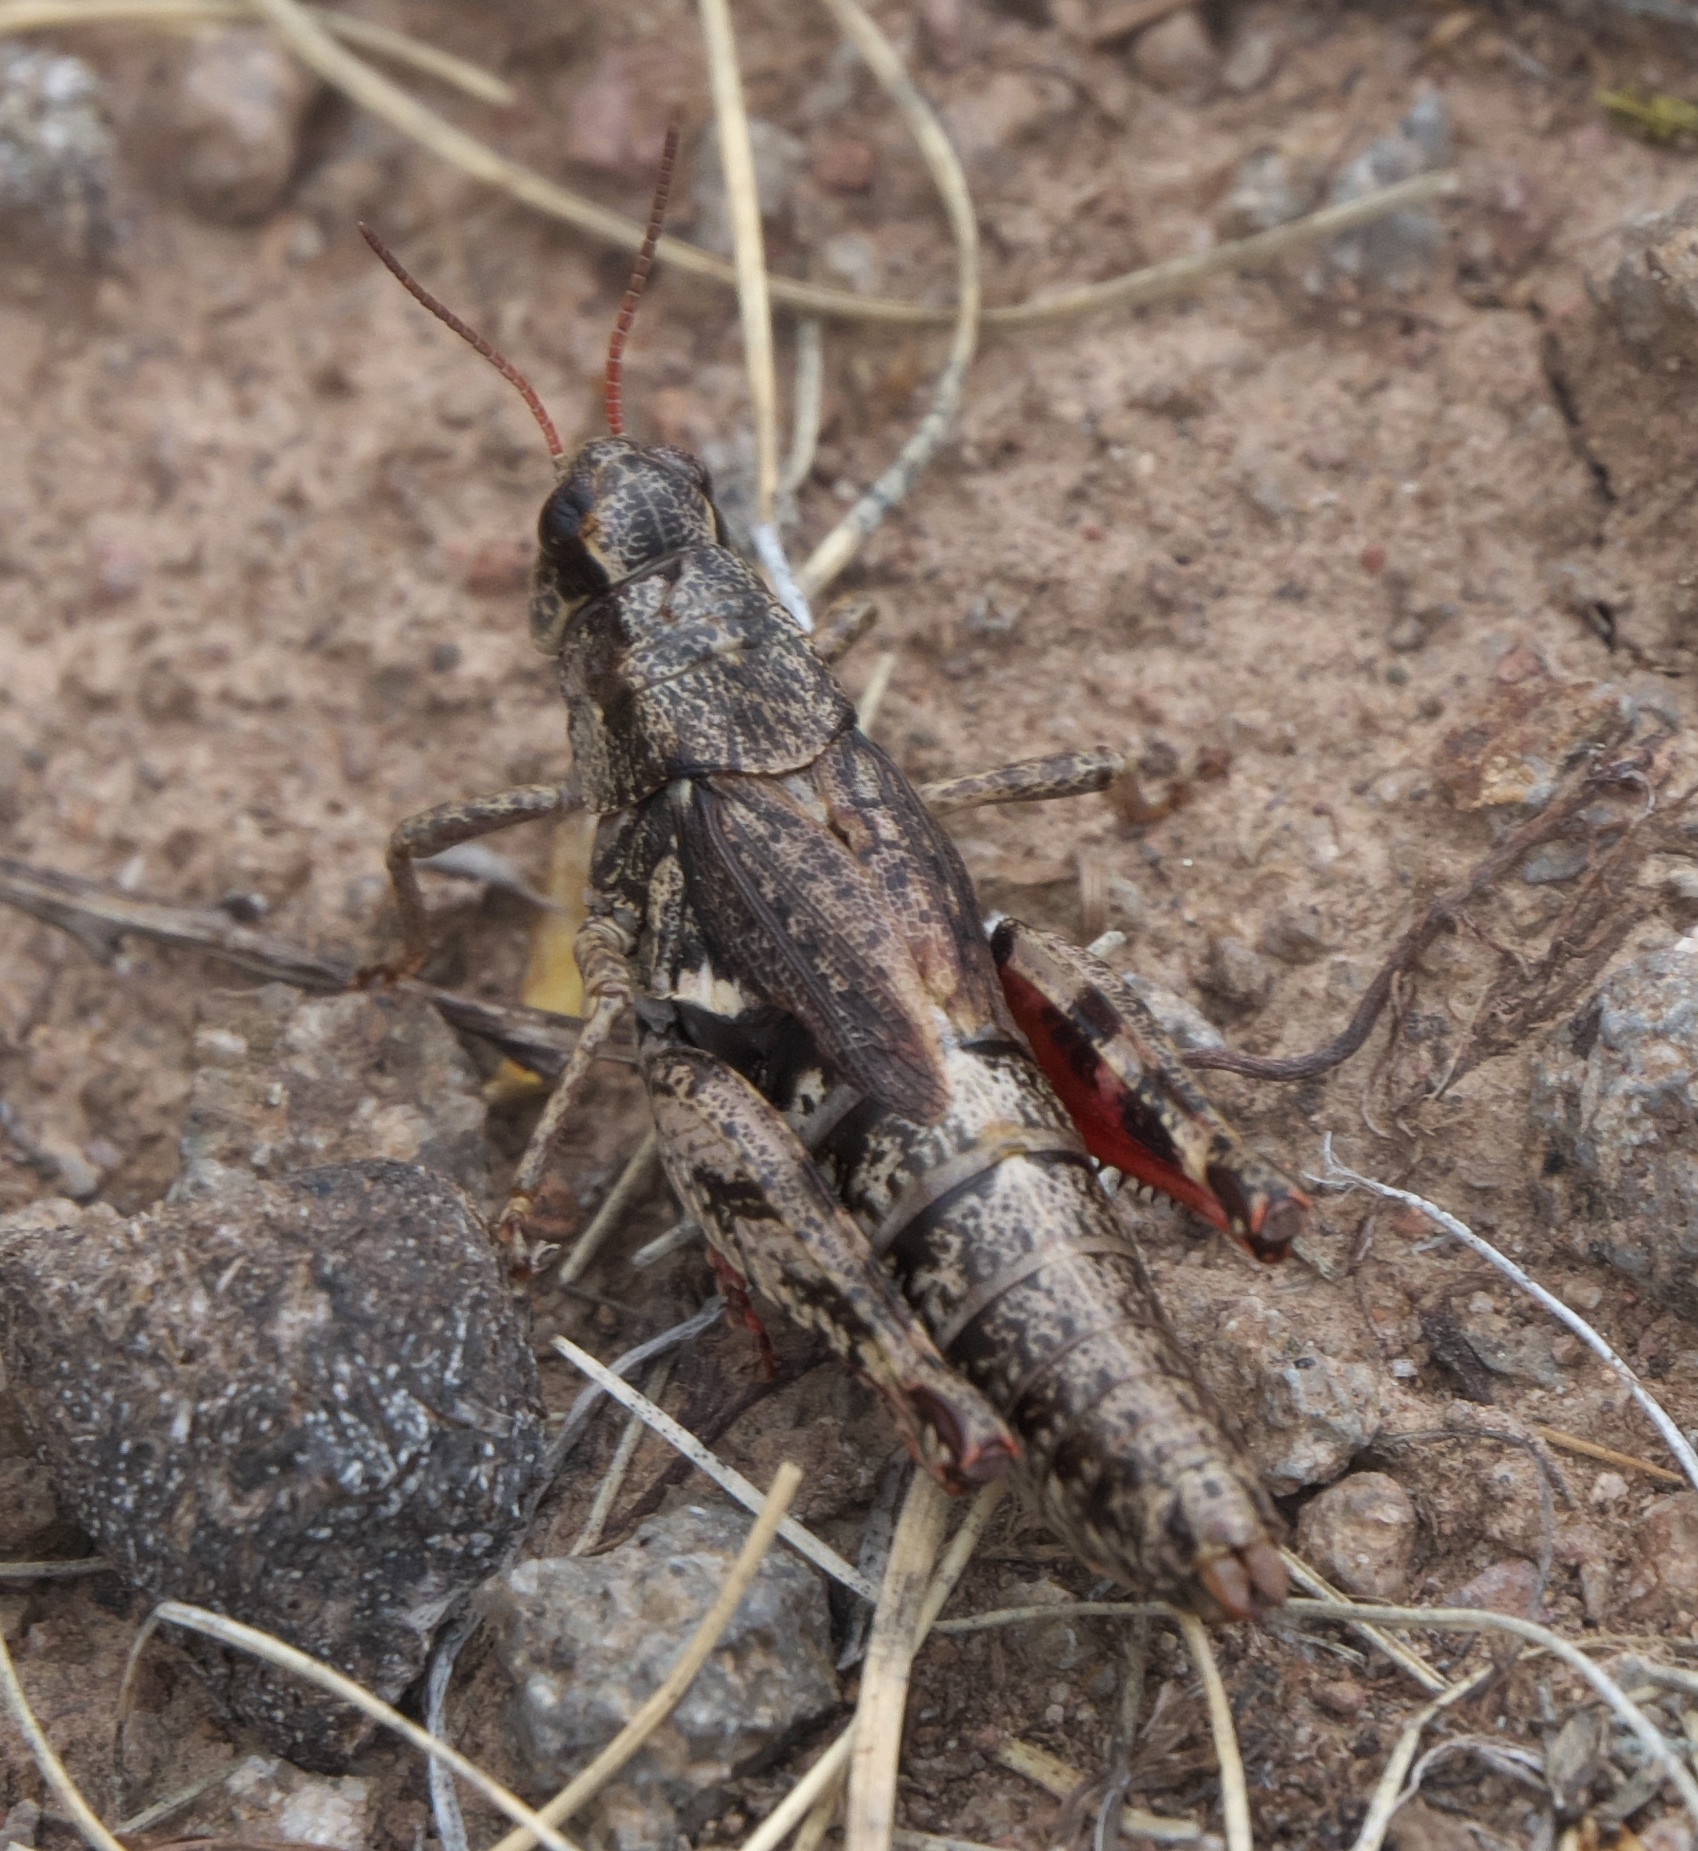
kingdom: Animalia
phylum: Arthropoda
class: Insecta
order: Orthoptera
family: Acrididae
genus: Melanoplus
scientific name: Melanoplus oregonensis
